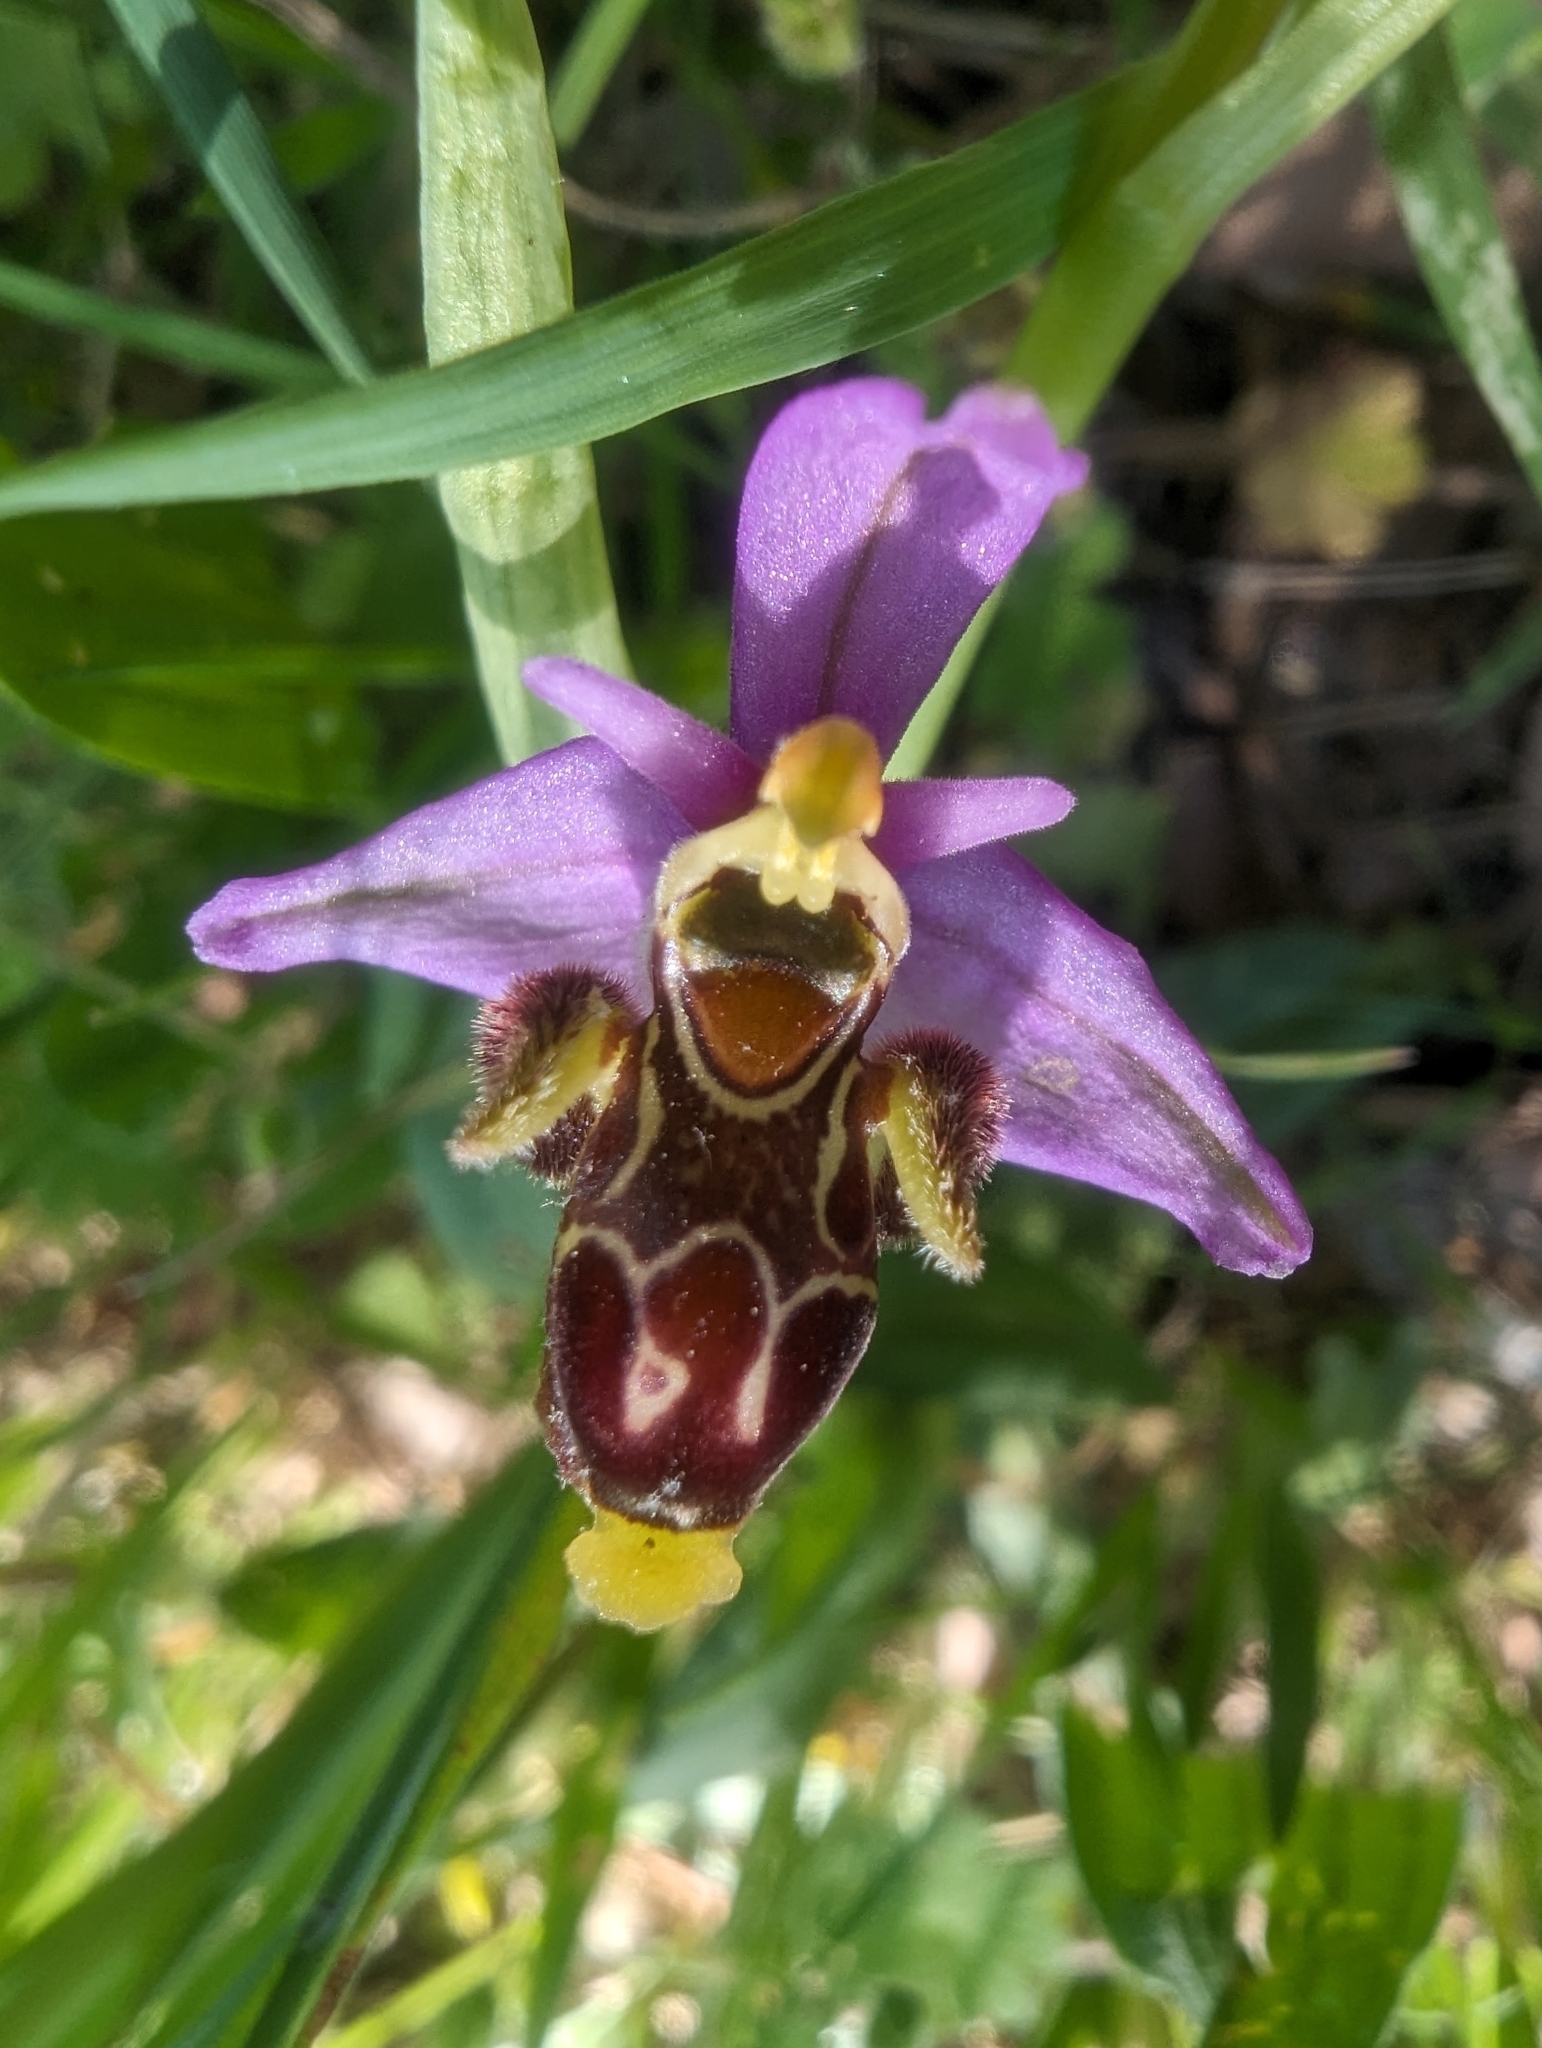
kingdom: Plantae
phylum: Tracheophyta
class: Liliopsida
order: Asparagales
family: Orchidaceae
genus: Ophrys
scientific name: Ophrys scolopax
